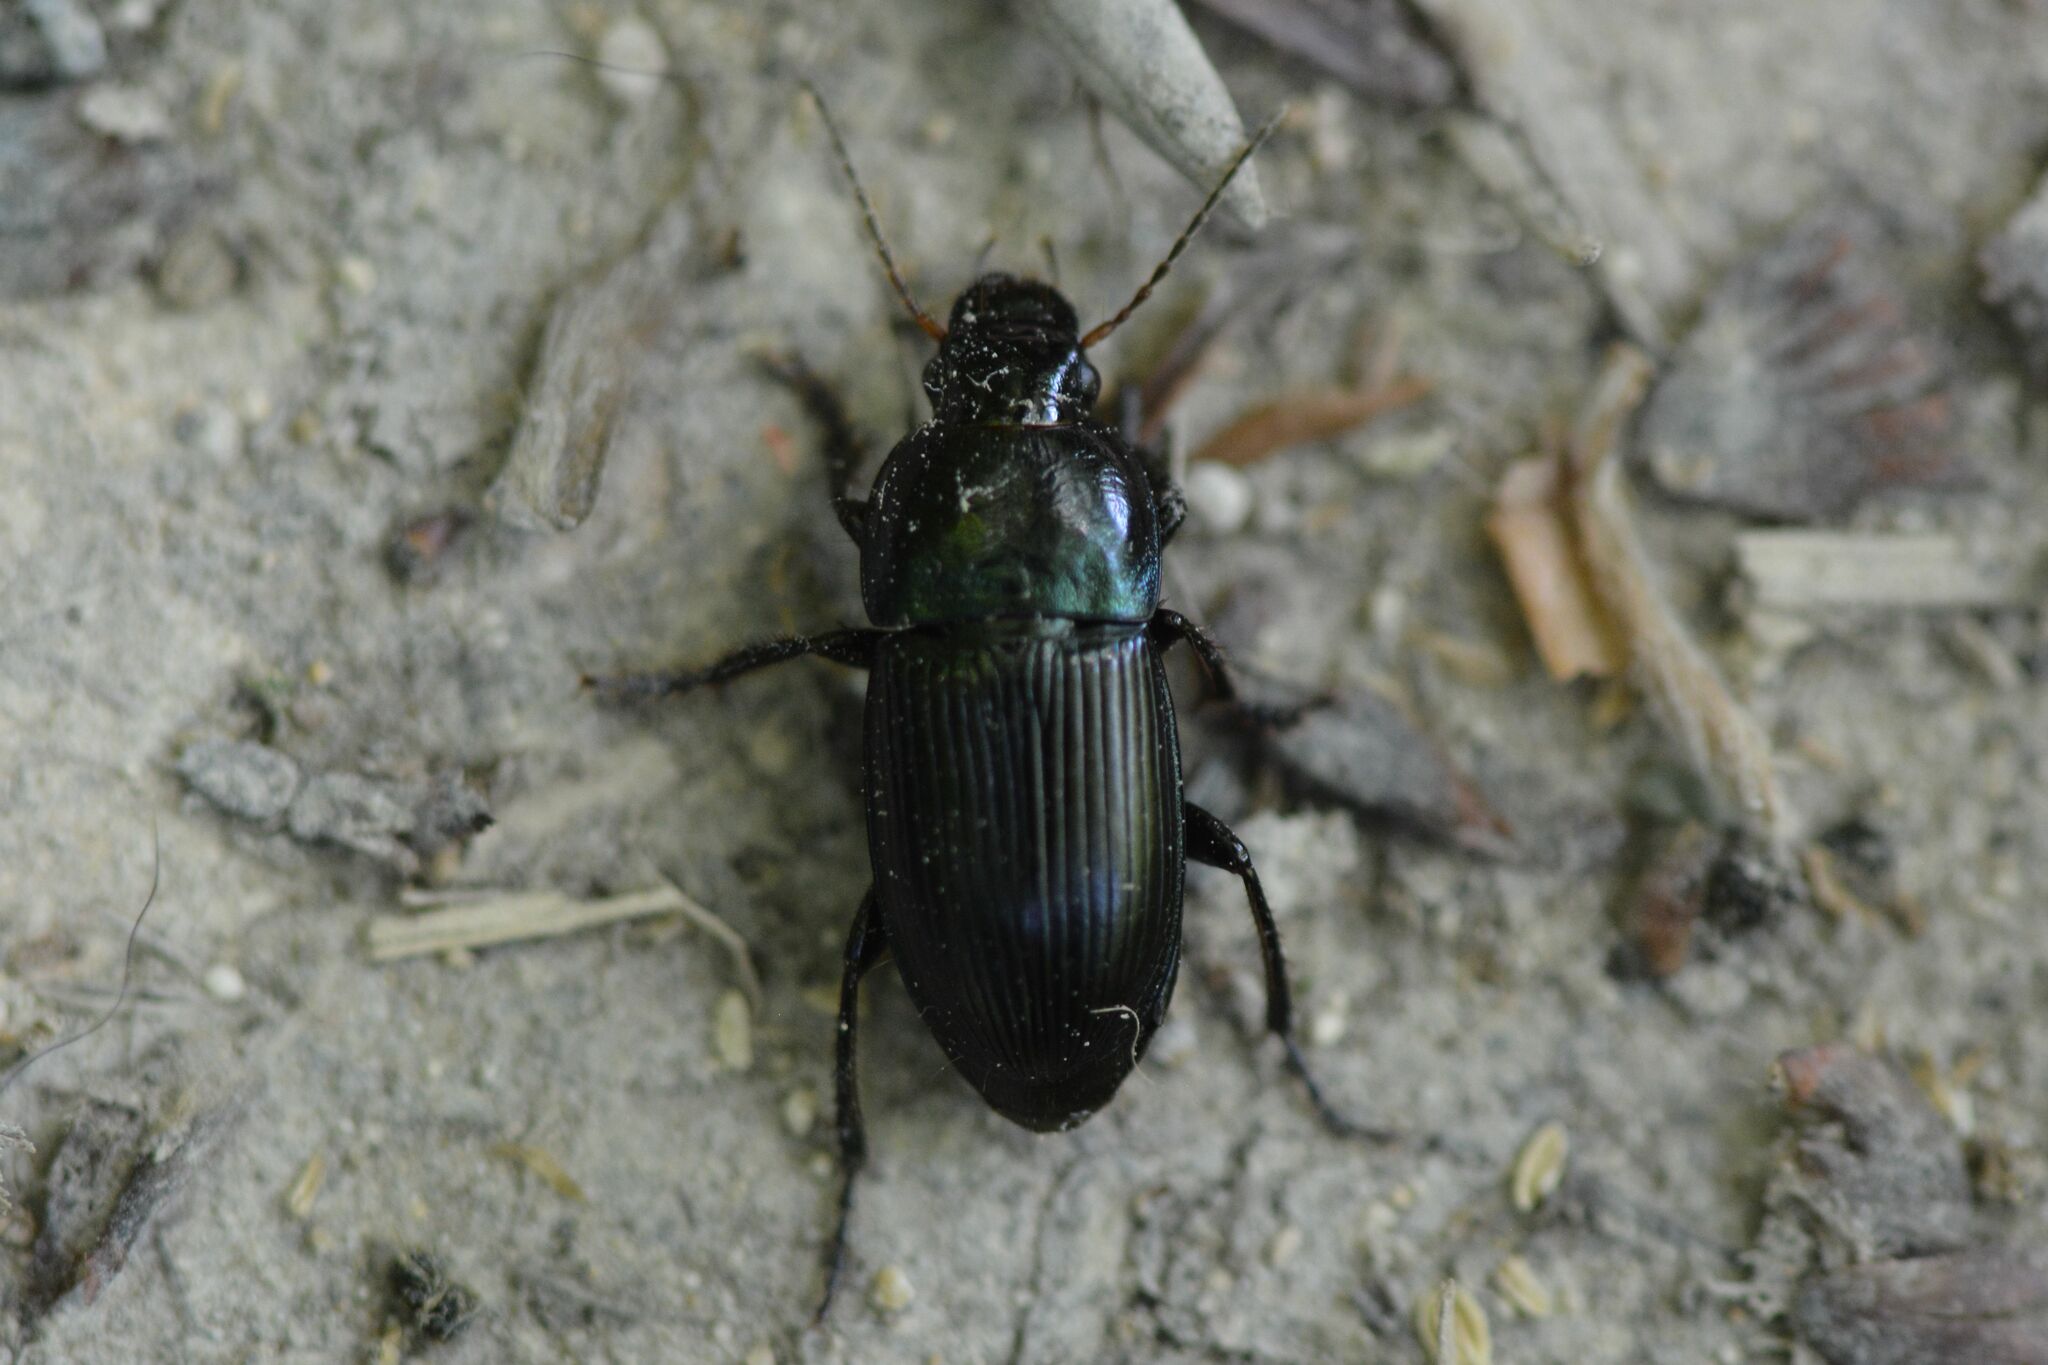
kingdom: Animalia
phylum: Arthropoda
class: Insecta
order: Coleoptera
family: Carabidae
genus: Harpalus
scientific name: Harpalus dimidiatus
